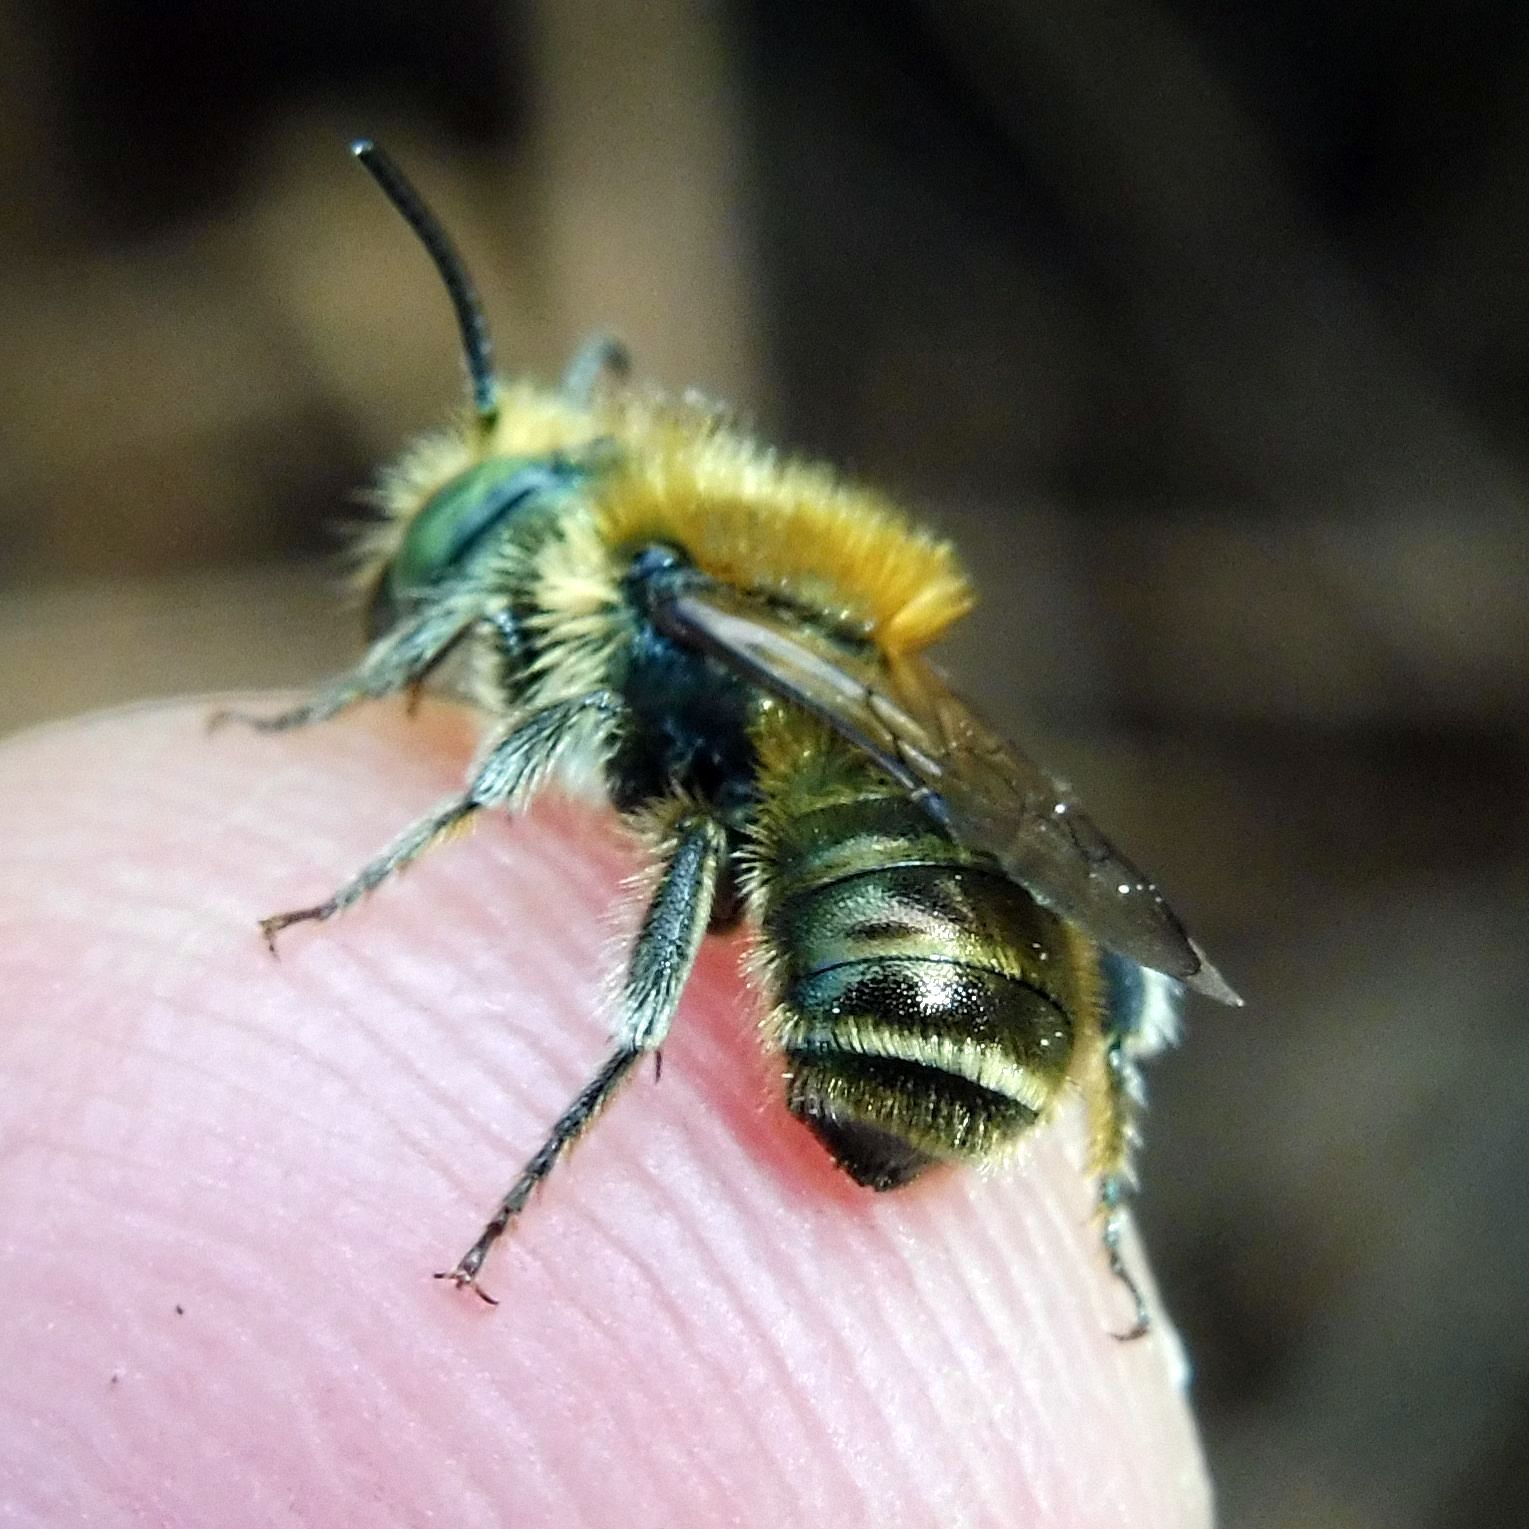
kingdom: Animalia
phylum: Arthropoda
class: Insecta
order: Hymenoptera
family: Megachilidae
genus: Osmia
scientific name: Osmia caerulescens
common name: Blue mason bee
